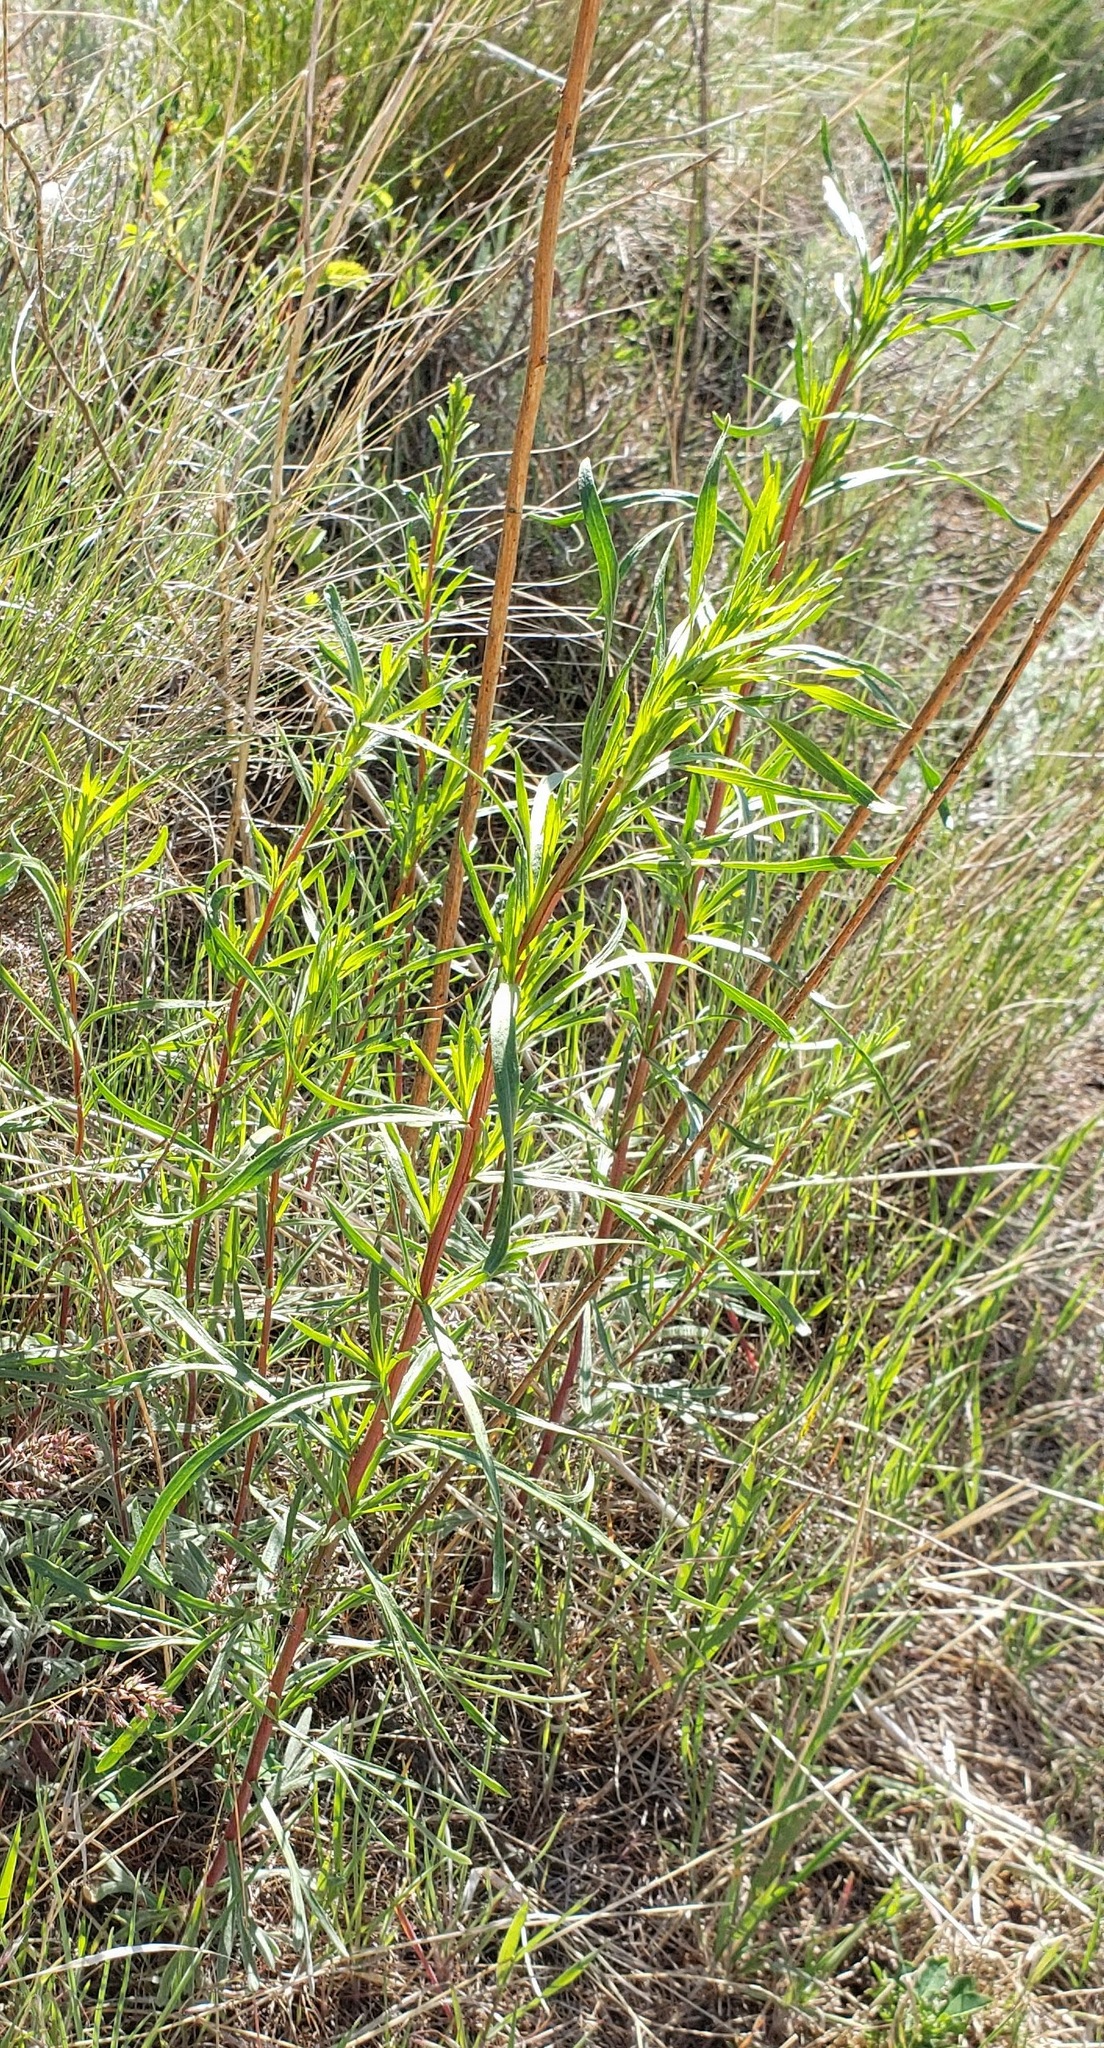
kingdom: Plantae
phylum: Tracheophyta
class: Magnoliopsida
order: Asterales
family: Asteraceae
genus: Artemisia
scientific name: Artemisia dracunculus
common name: Tarragon
